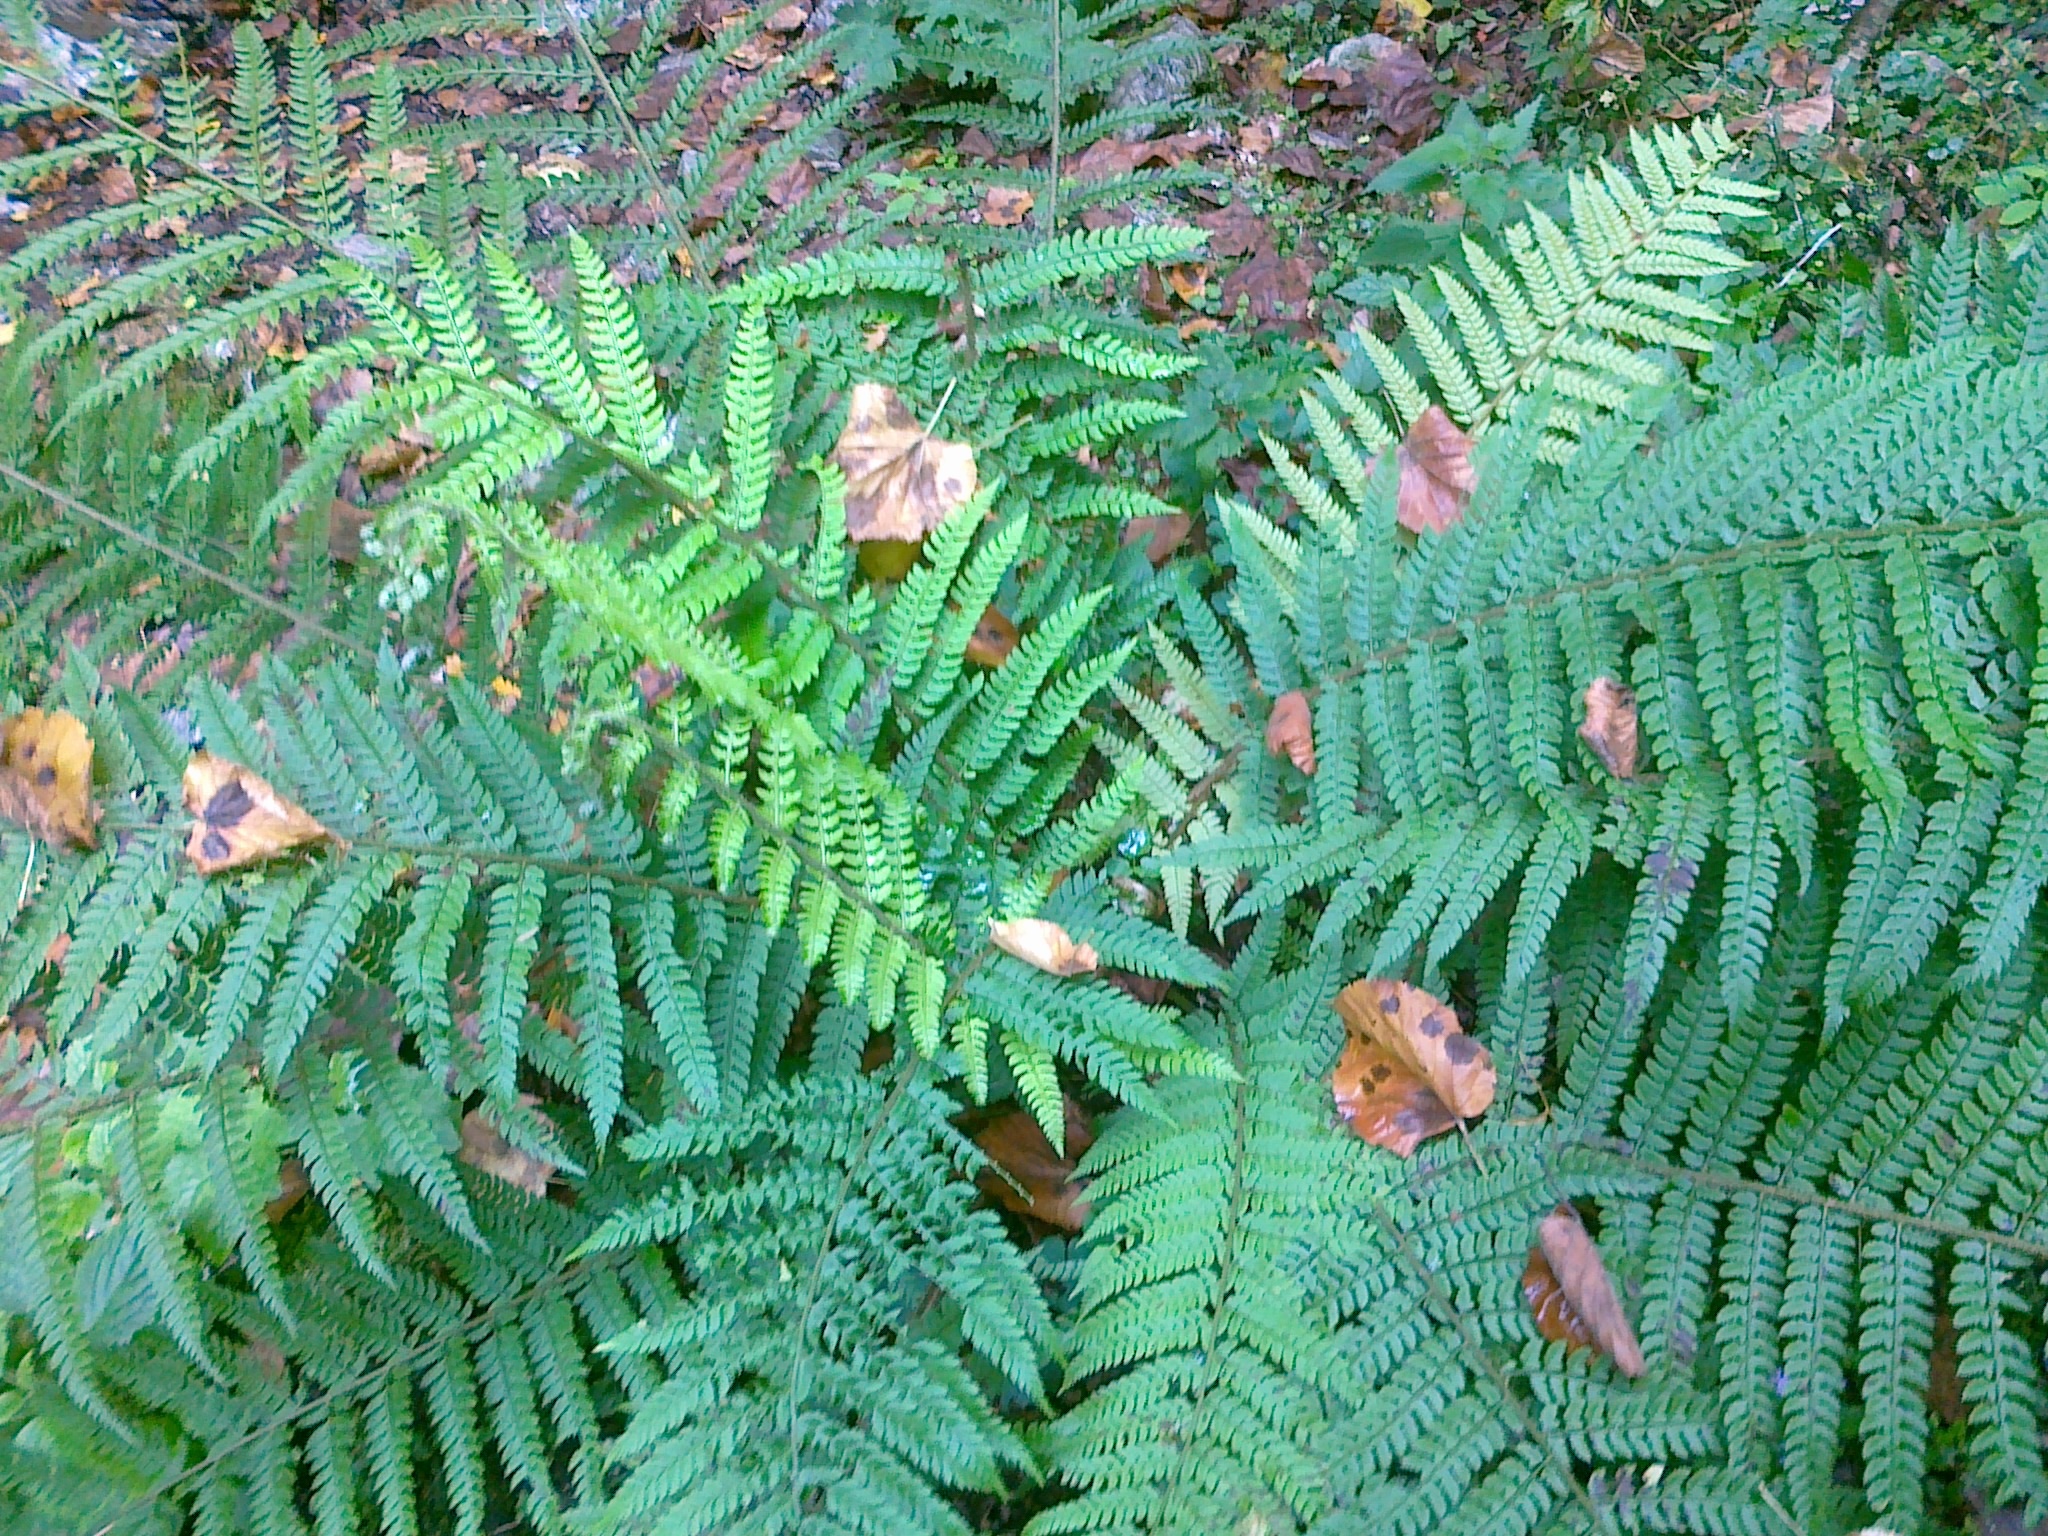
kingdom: Plantae
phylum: Tracheophyta
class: Polypodiopsida
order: Polypodiales
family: Dryopteridaceae
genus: Polystichum
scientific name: Polystichum setiferum
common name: Soft shield-fern
